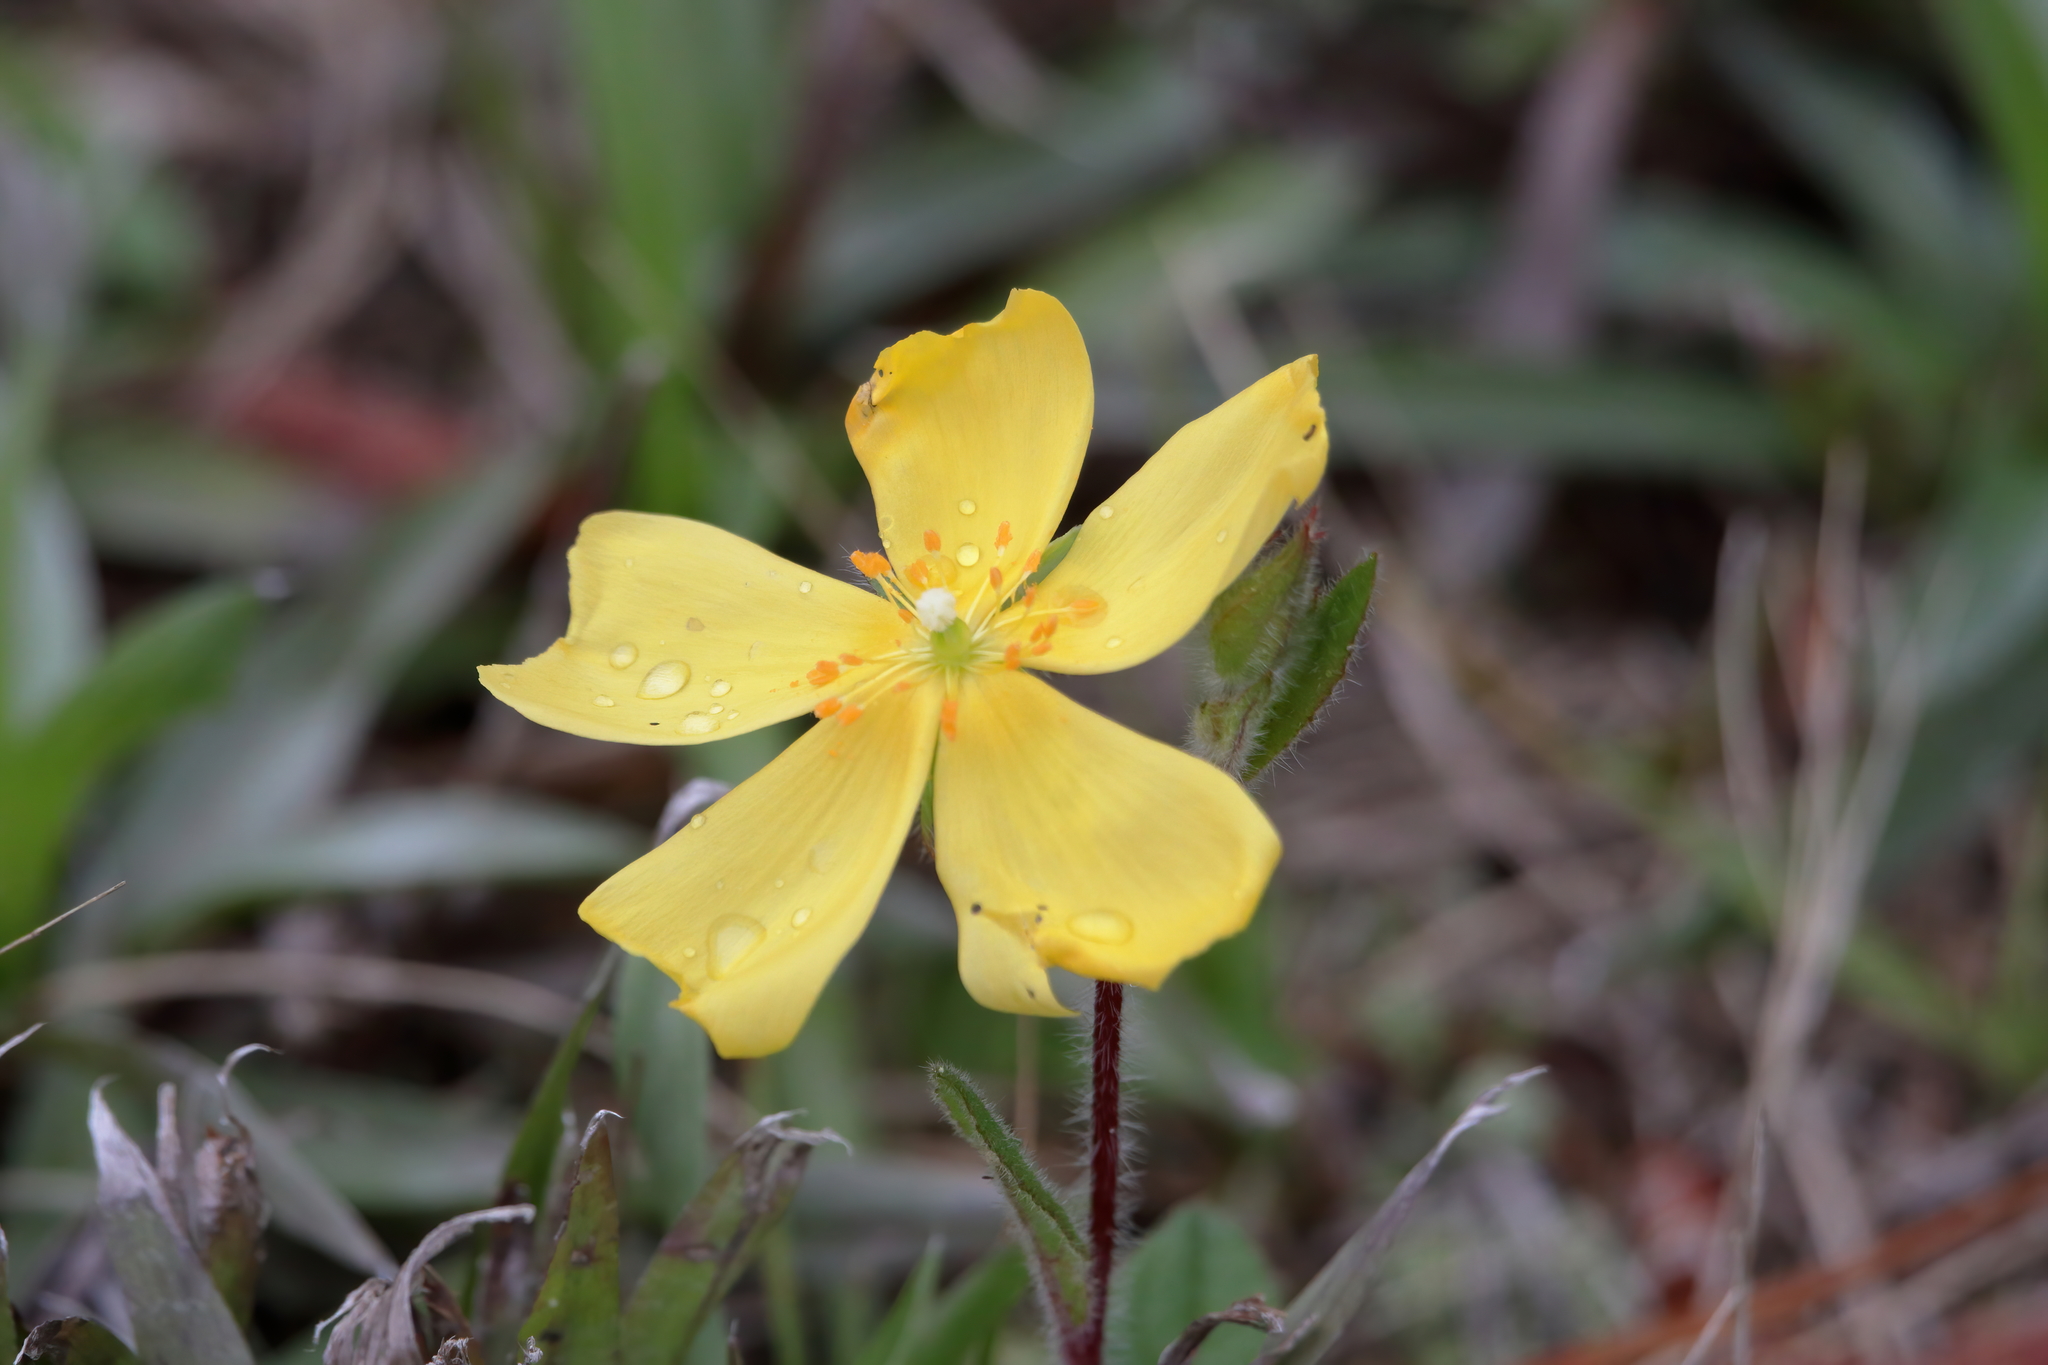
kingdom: Plantae
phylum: Tracheophyta
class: Magnoliopsida
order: Malvales
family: Cistaceae
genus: Crocanthemum
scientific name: Crocanthemum carolinianum
